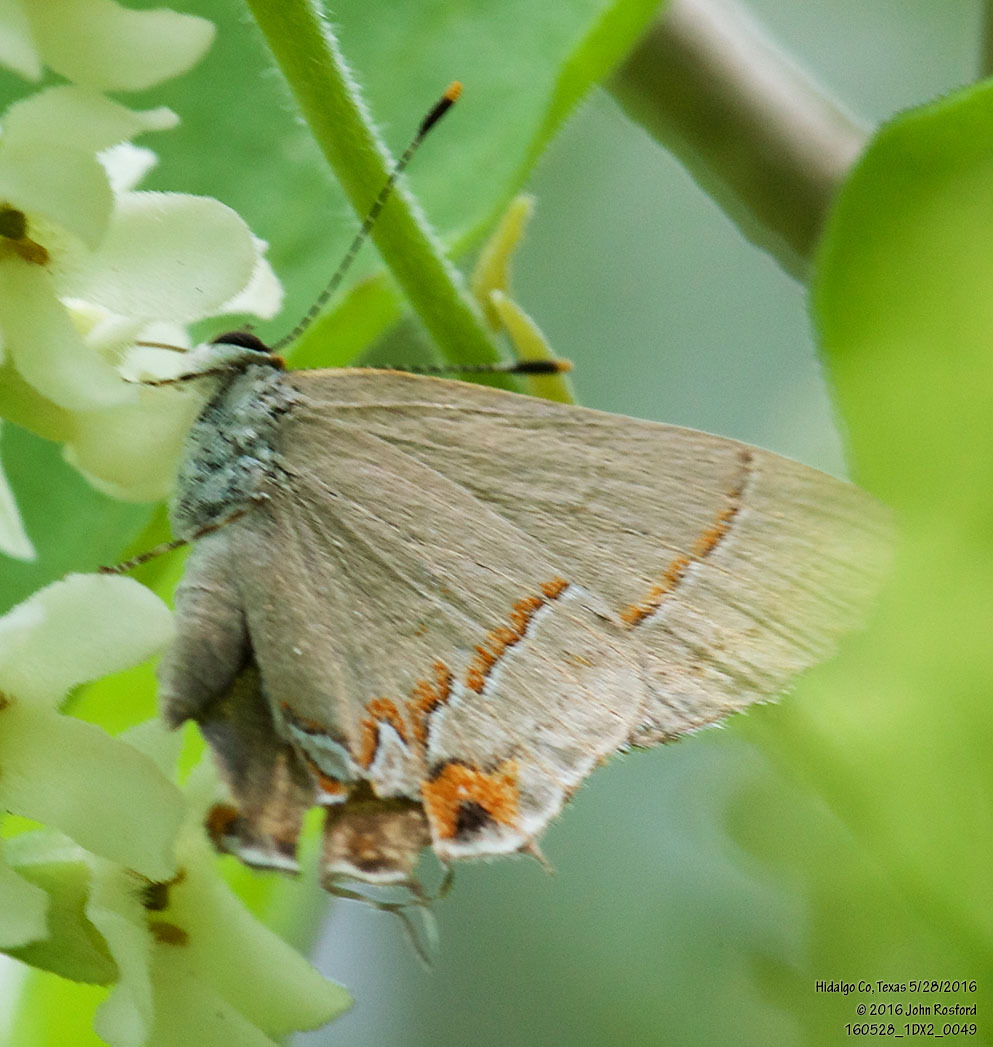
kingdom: Animalia
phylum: Arthropoda
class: Insecta
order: Lepidoptera
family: Lycaenidae
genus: Electrostrymon
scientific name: Electrostrymon endymion
